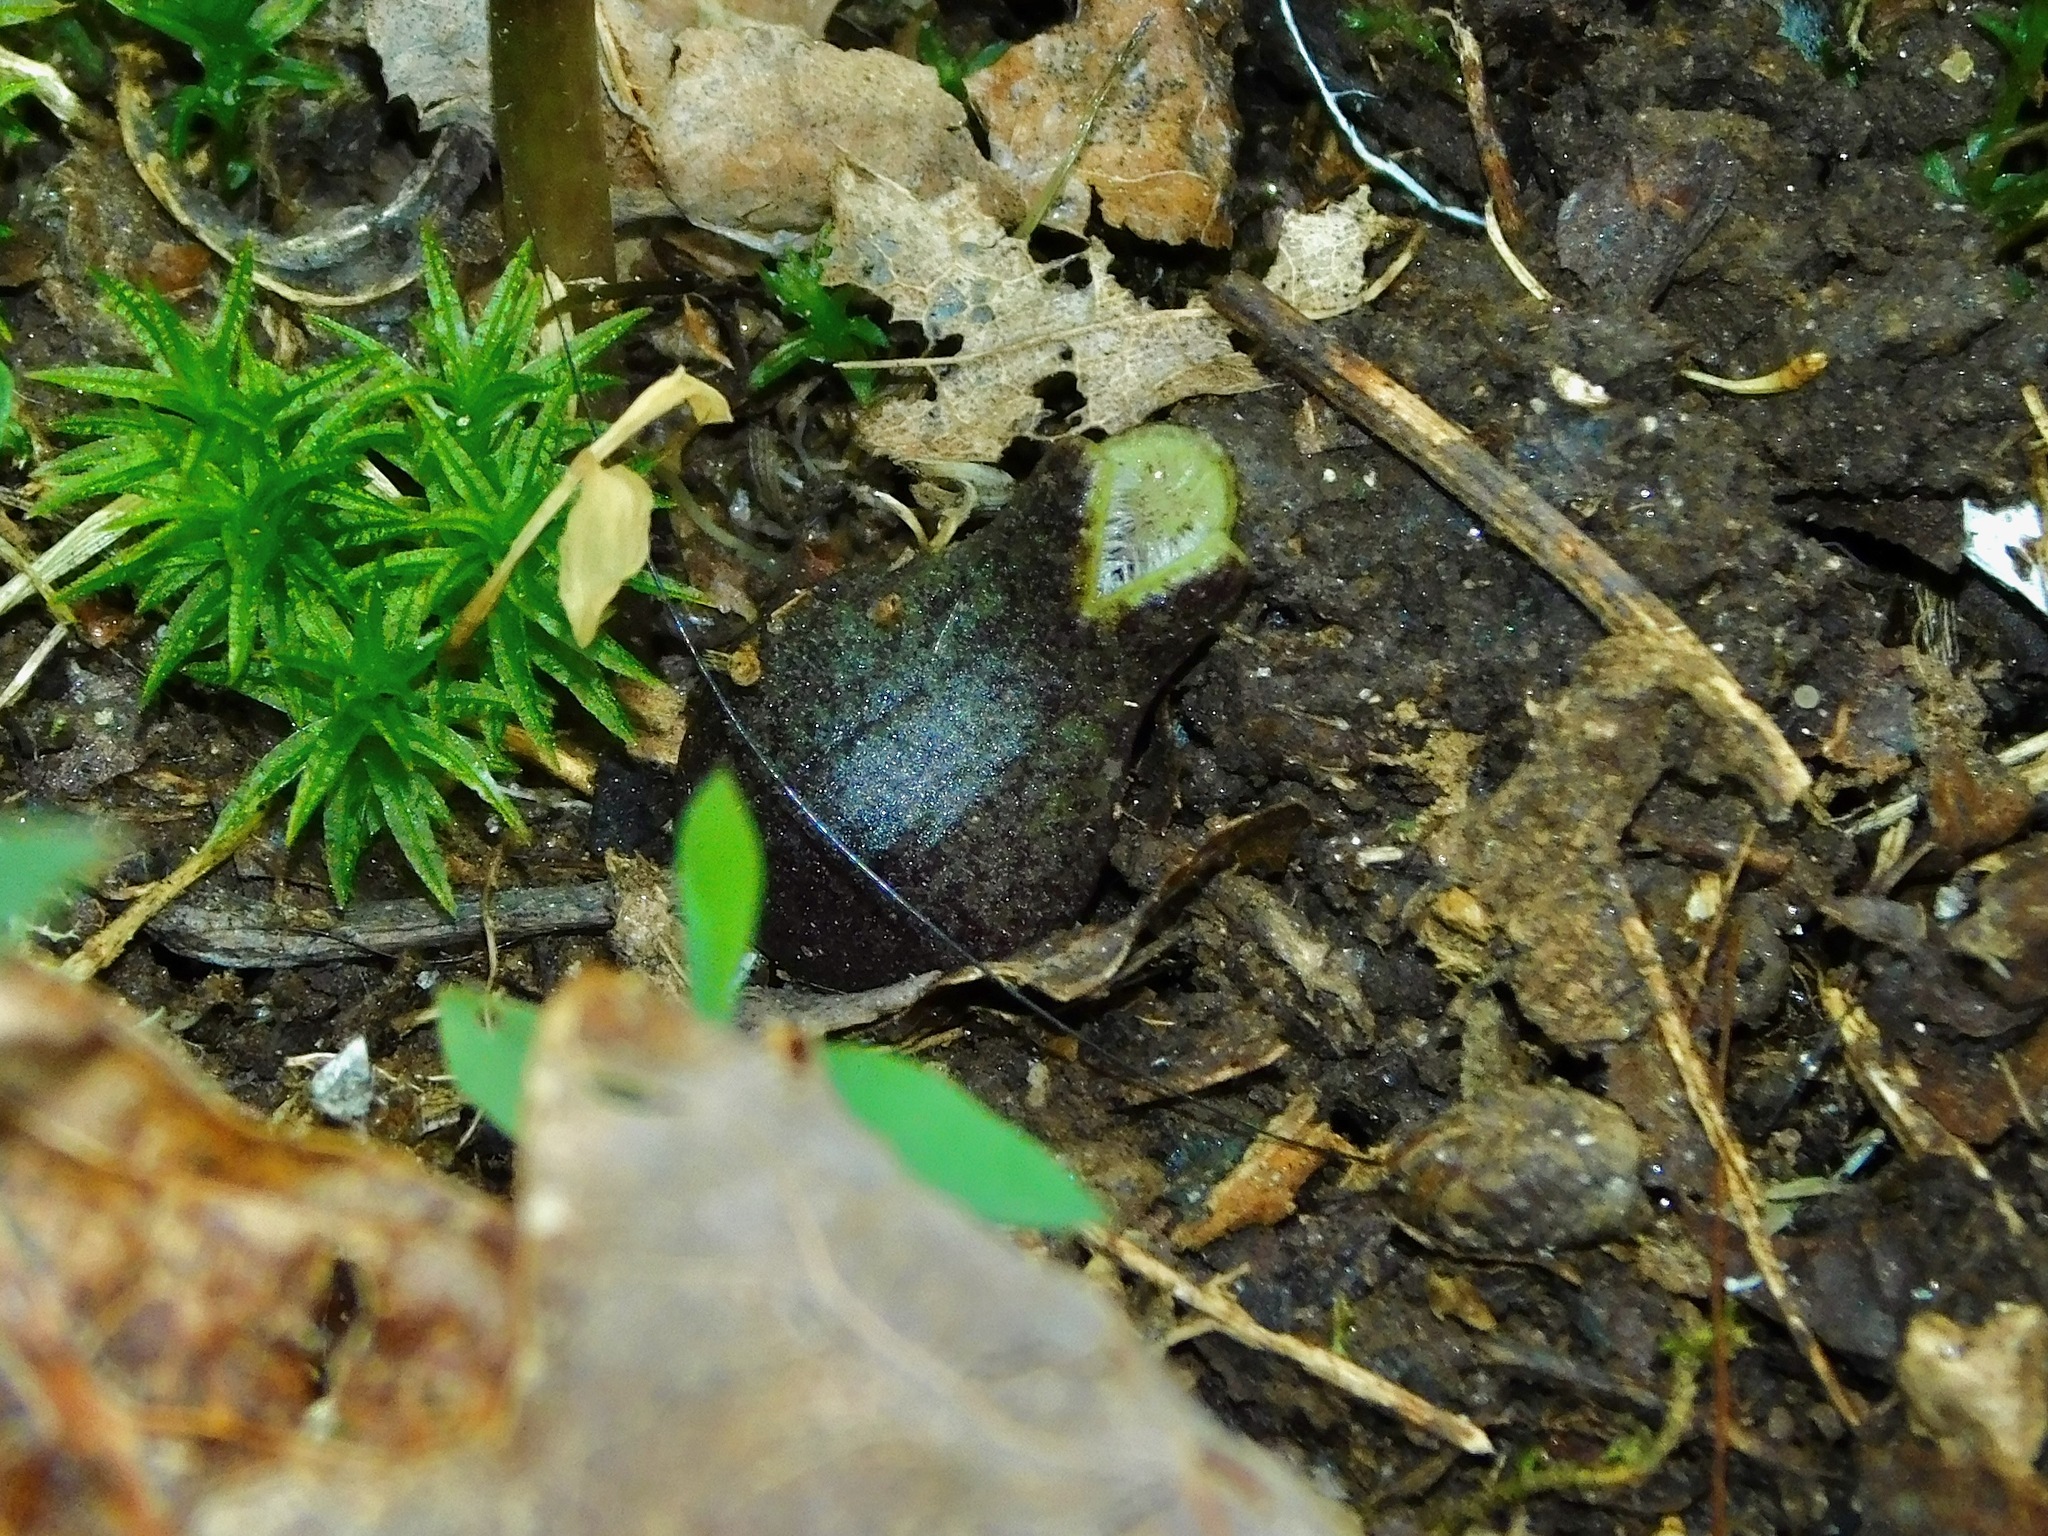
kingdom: Plantae
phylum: Tracheophyta
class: Magnoliopsida
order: Piperales
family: Aristolochiaceae
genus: Hexastylis
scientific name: Hexastylis arifolia
